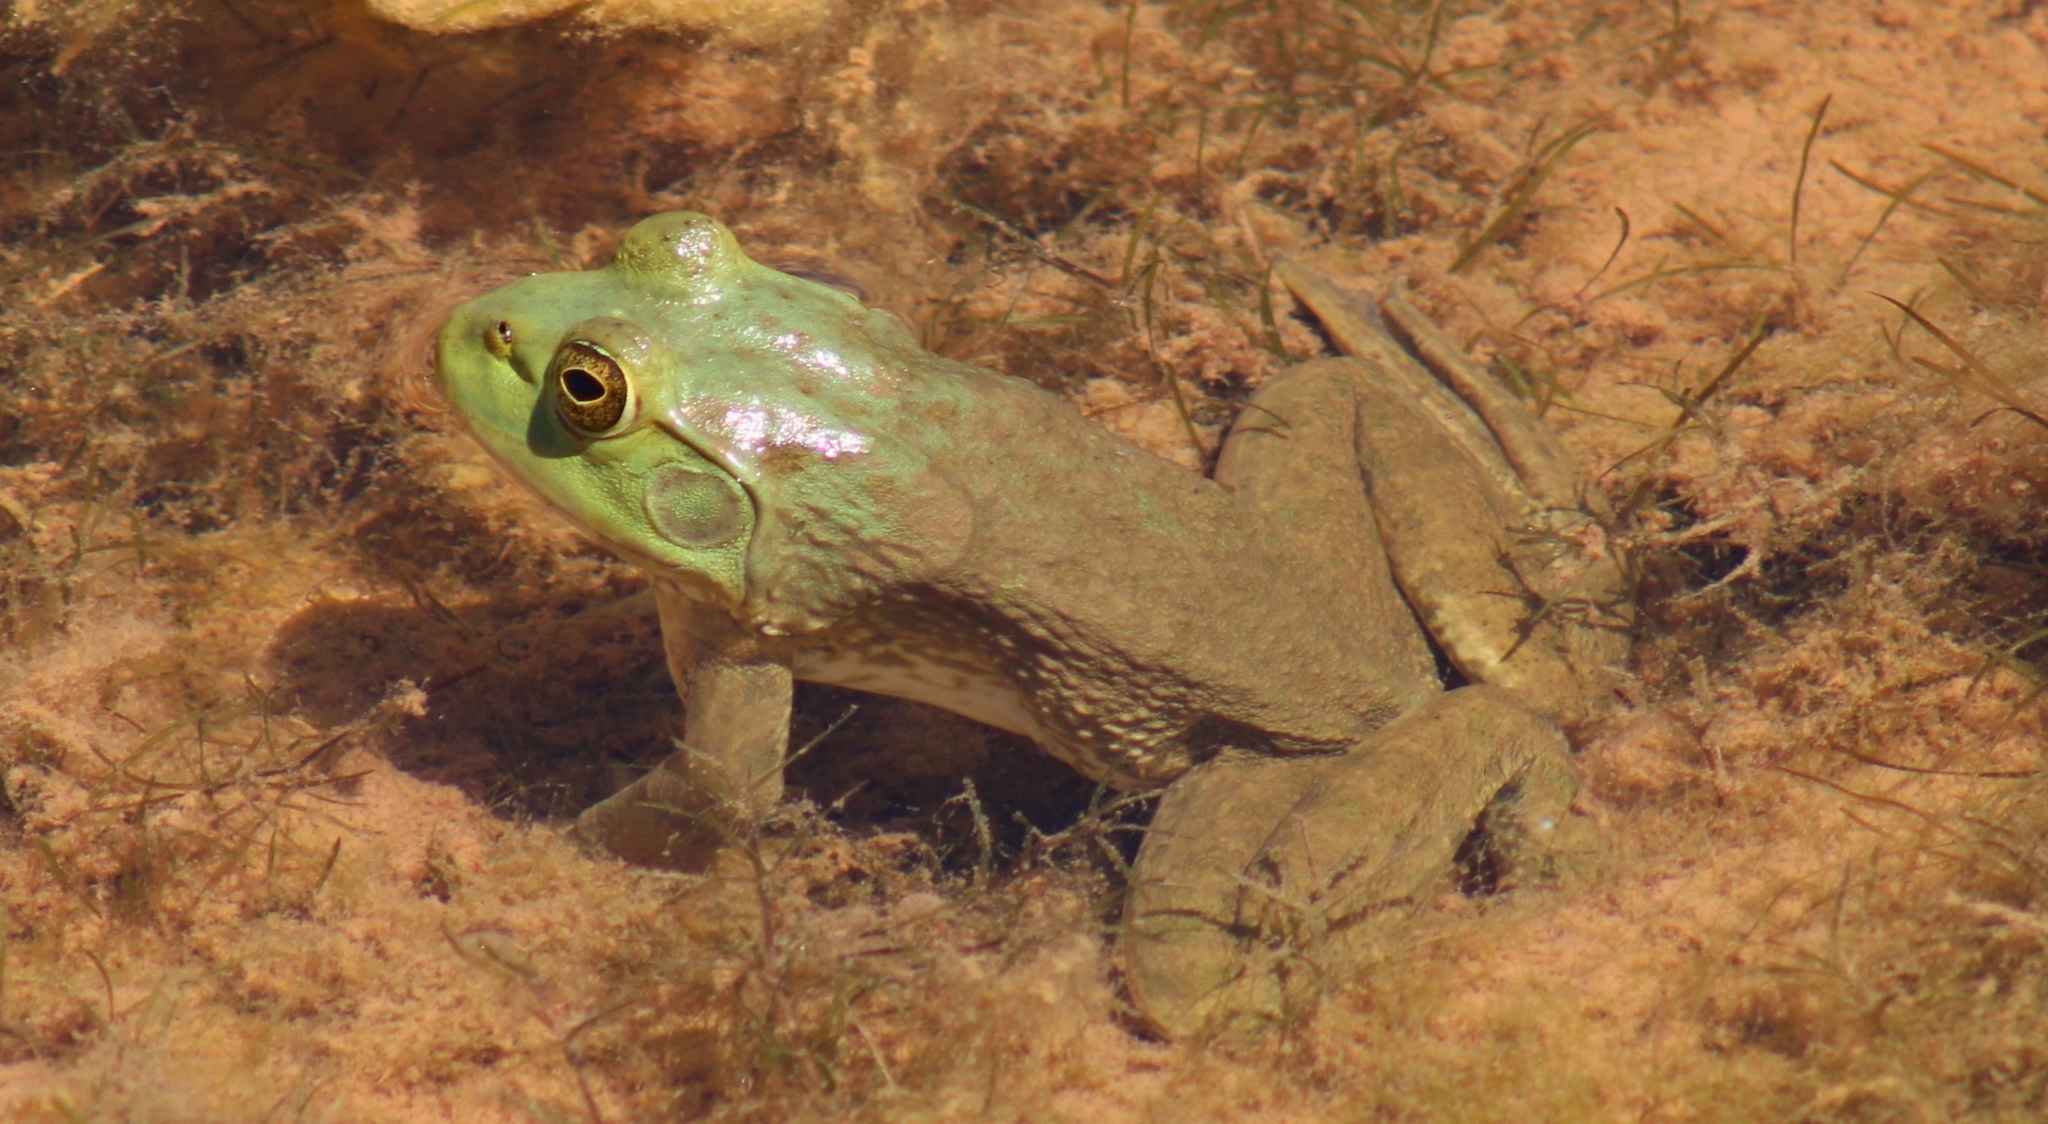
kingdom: Animalia
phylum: Chordata
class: Amphibia
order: Anura
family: Ranidae
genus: Lithobates
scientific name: Lithobates catesbeianus
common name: American bullfrog
